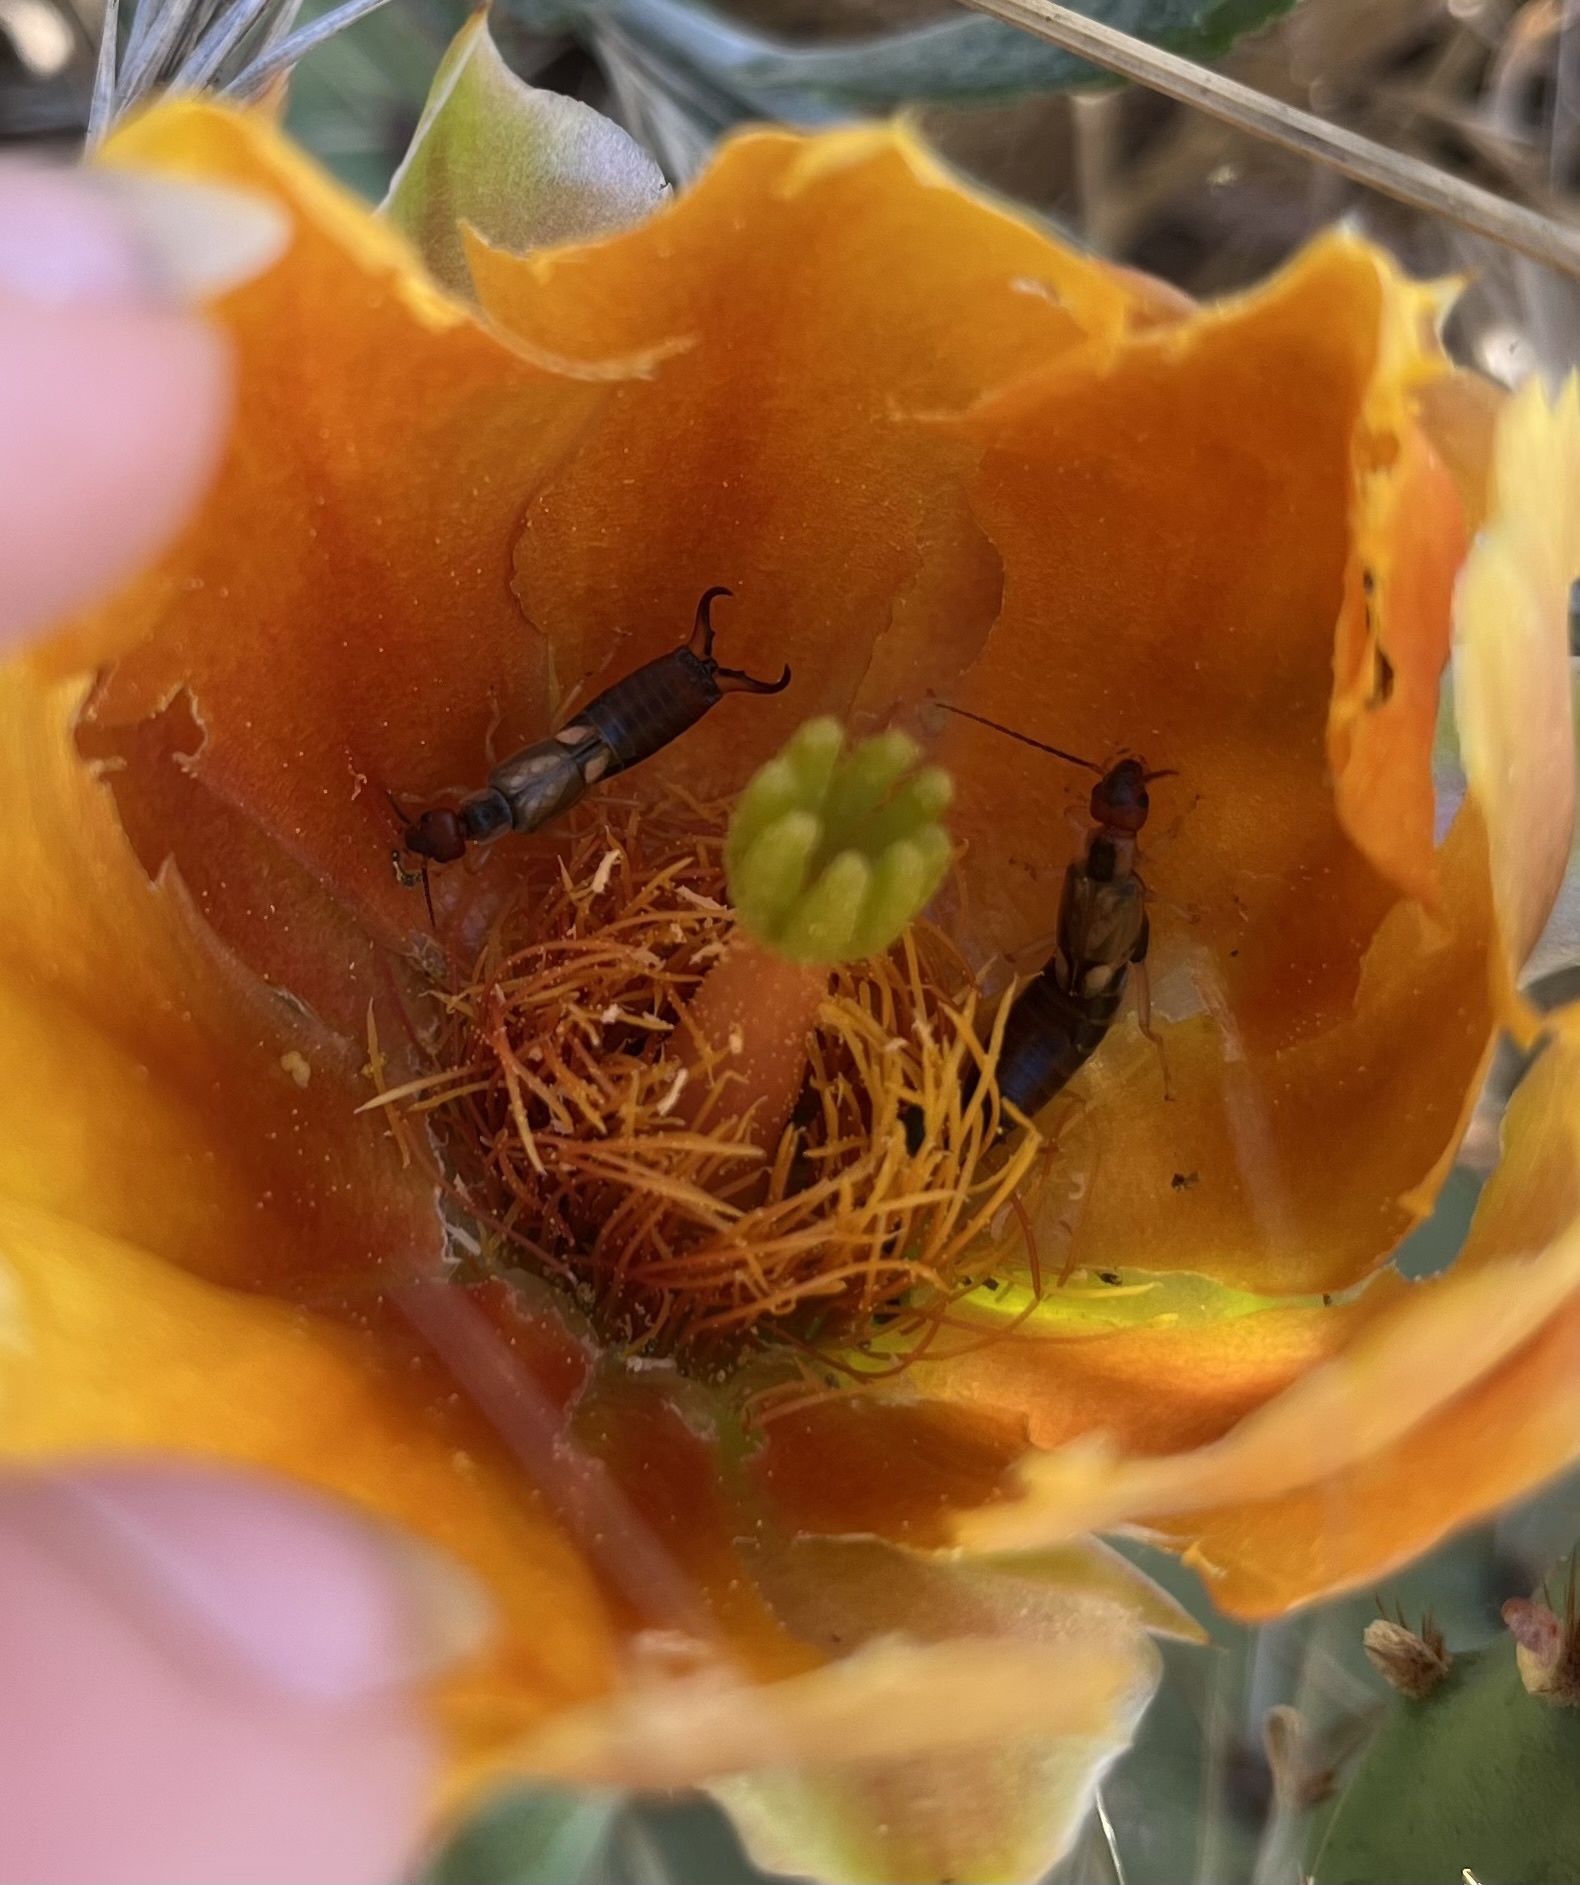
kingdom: Animalia
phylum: Arthropoda
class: Insecta
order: Dermaptera
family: Forficulidae
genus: Forficula
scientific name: Forficula dentata
